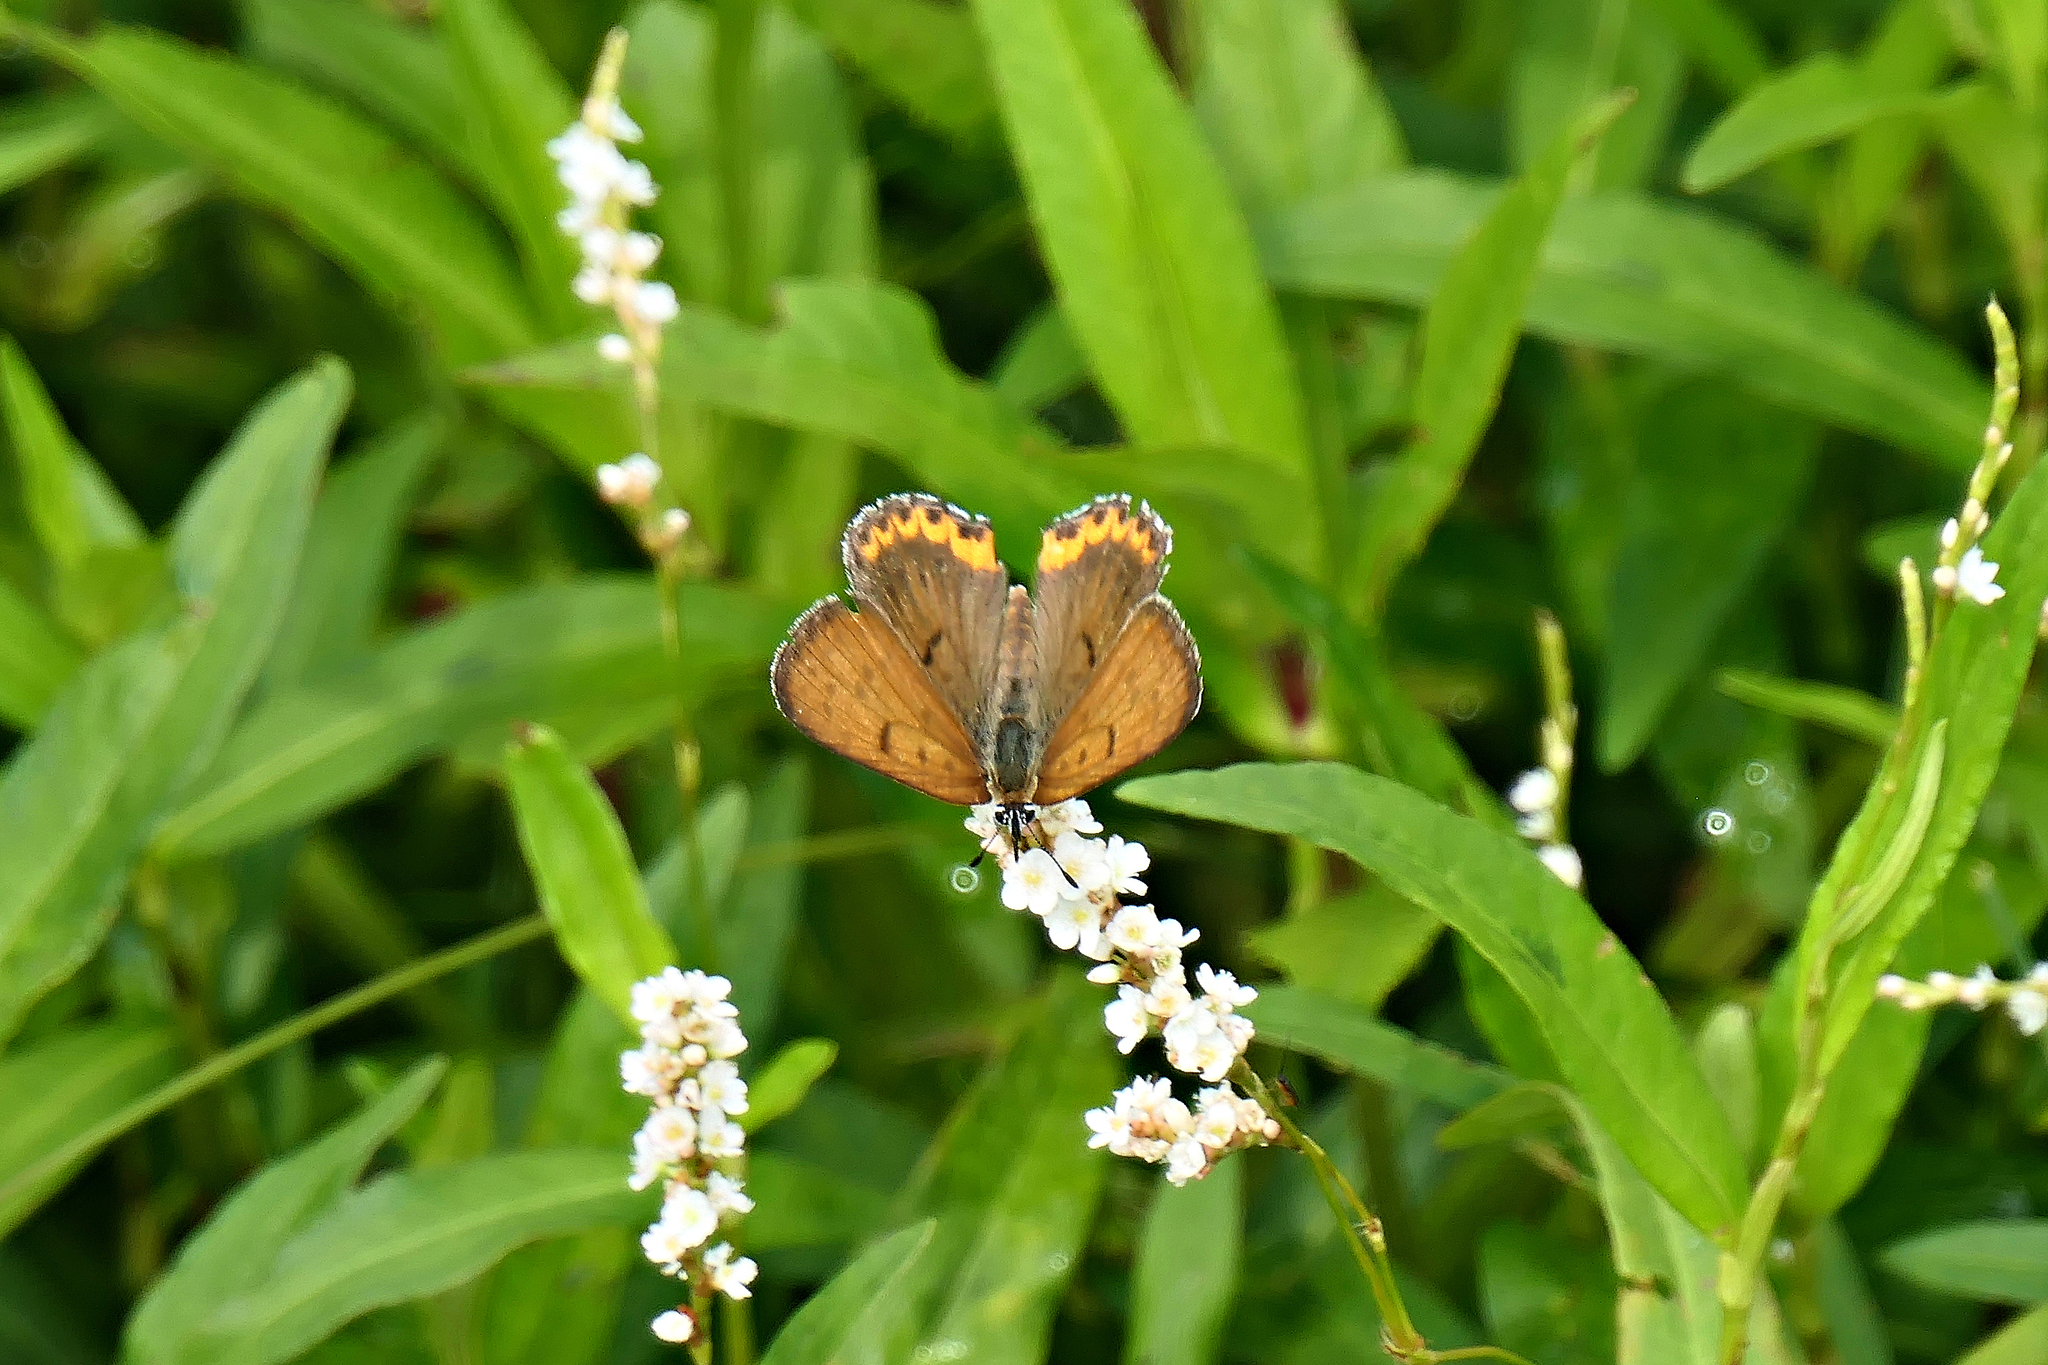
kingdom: Animalia
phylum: Arthropoda
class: Insecta
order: Lepidoptera
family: Lycaenidae
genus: Tharsalea
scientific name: Tharsalea hyllus
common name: Bronze copper
